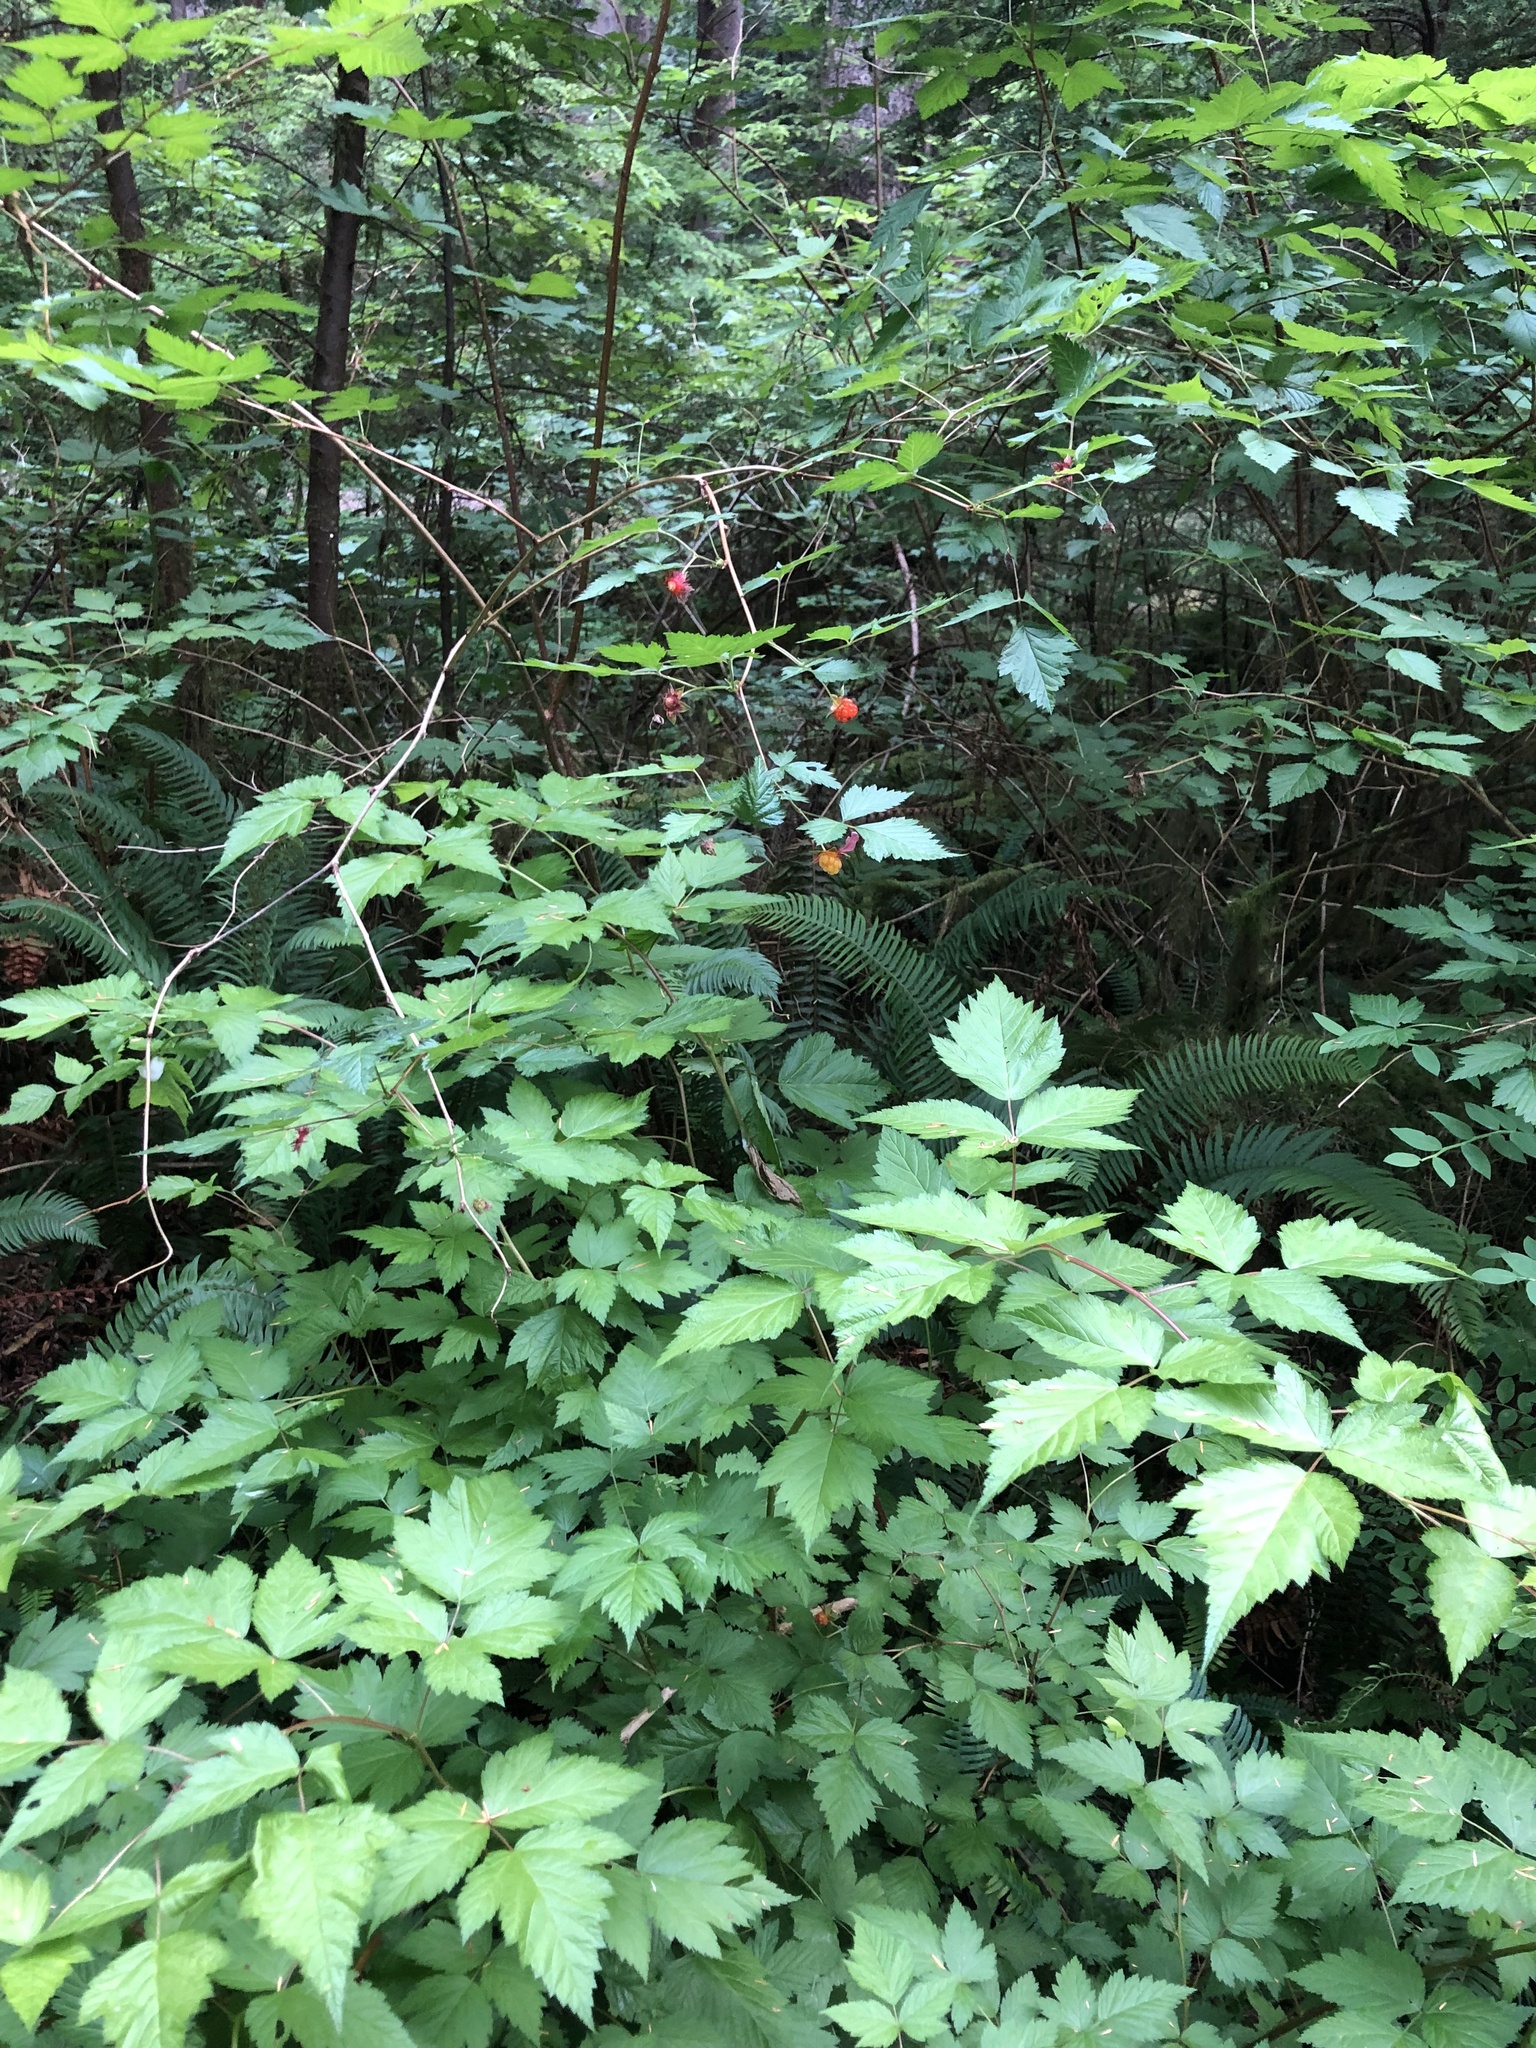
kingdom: Plantae
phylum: Tracheophyta
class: Magnoliopsida
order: Rosales
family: Rosaceae
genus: Rubus
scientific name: Rubus spectabilis
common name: Salmonberry
